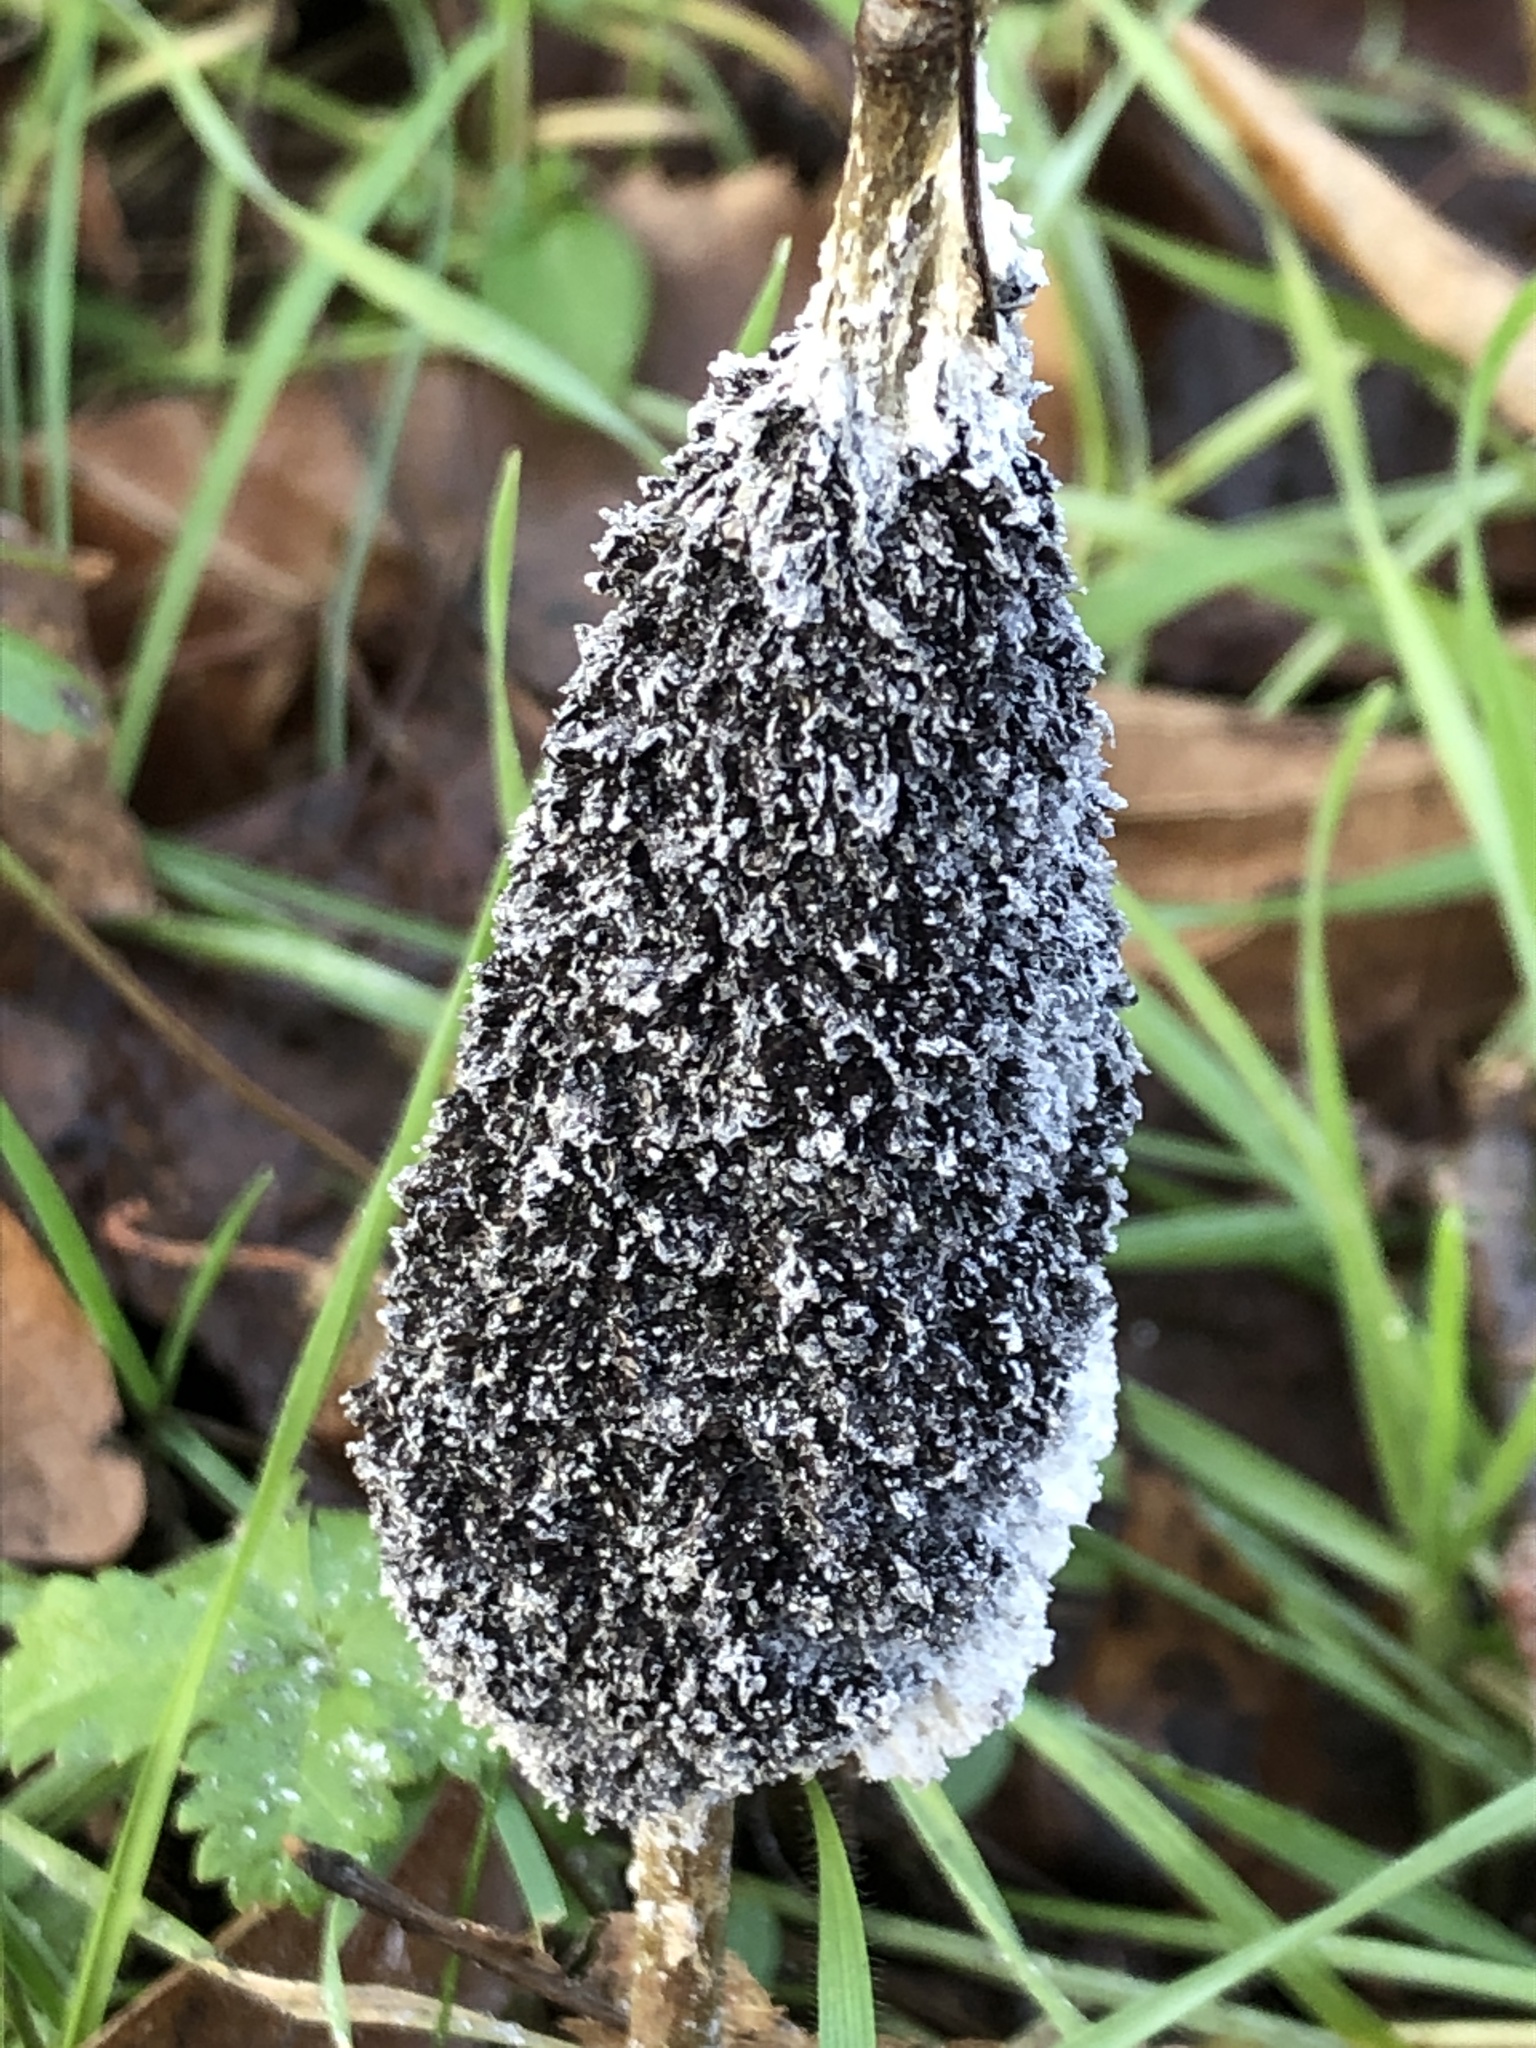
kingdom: Protozoa
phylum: Mycetozoa
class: Myxomycetes
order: Physarales
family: Physaraceae
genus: Didymium
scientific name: Didymium
